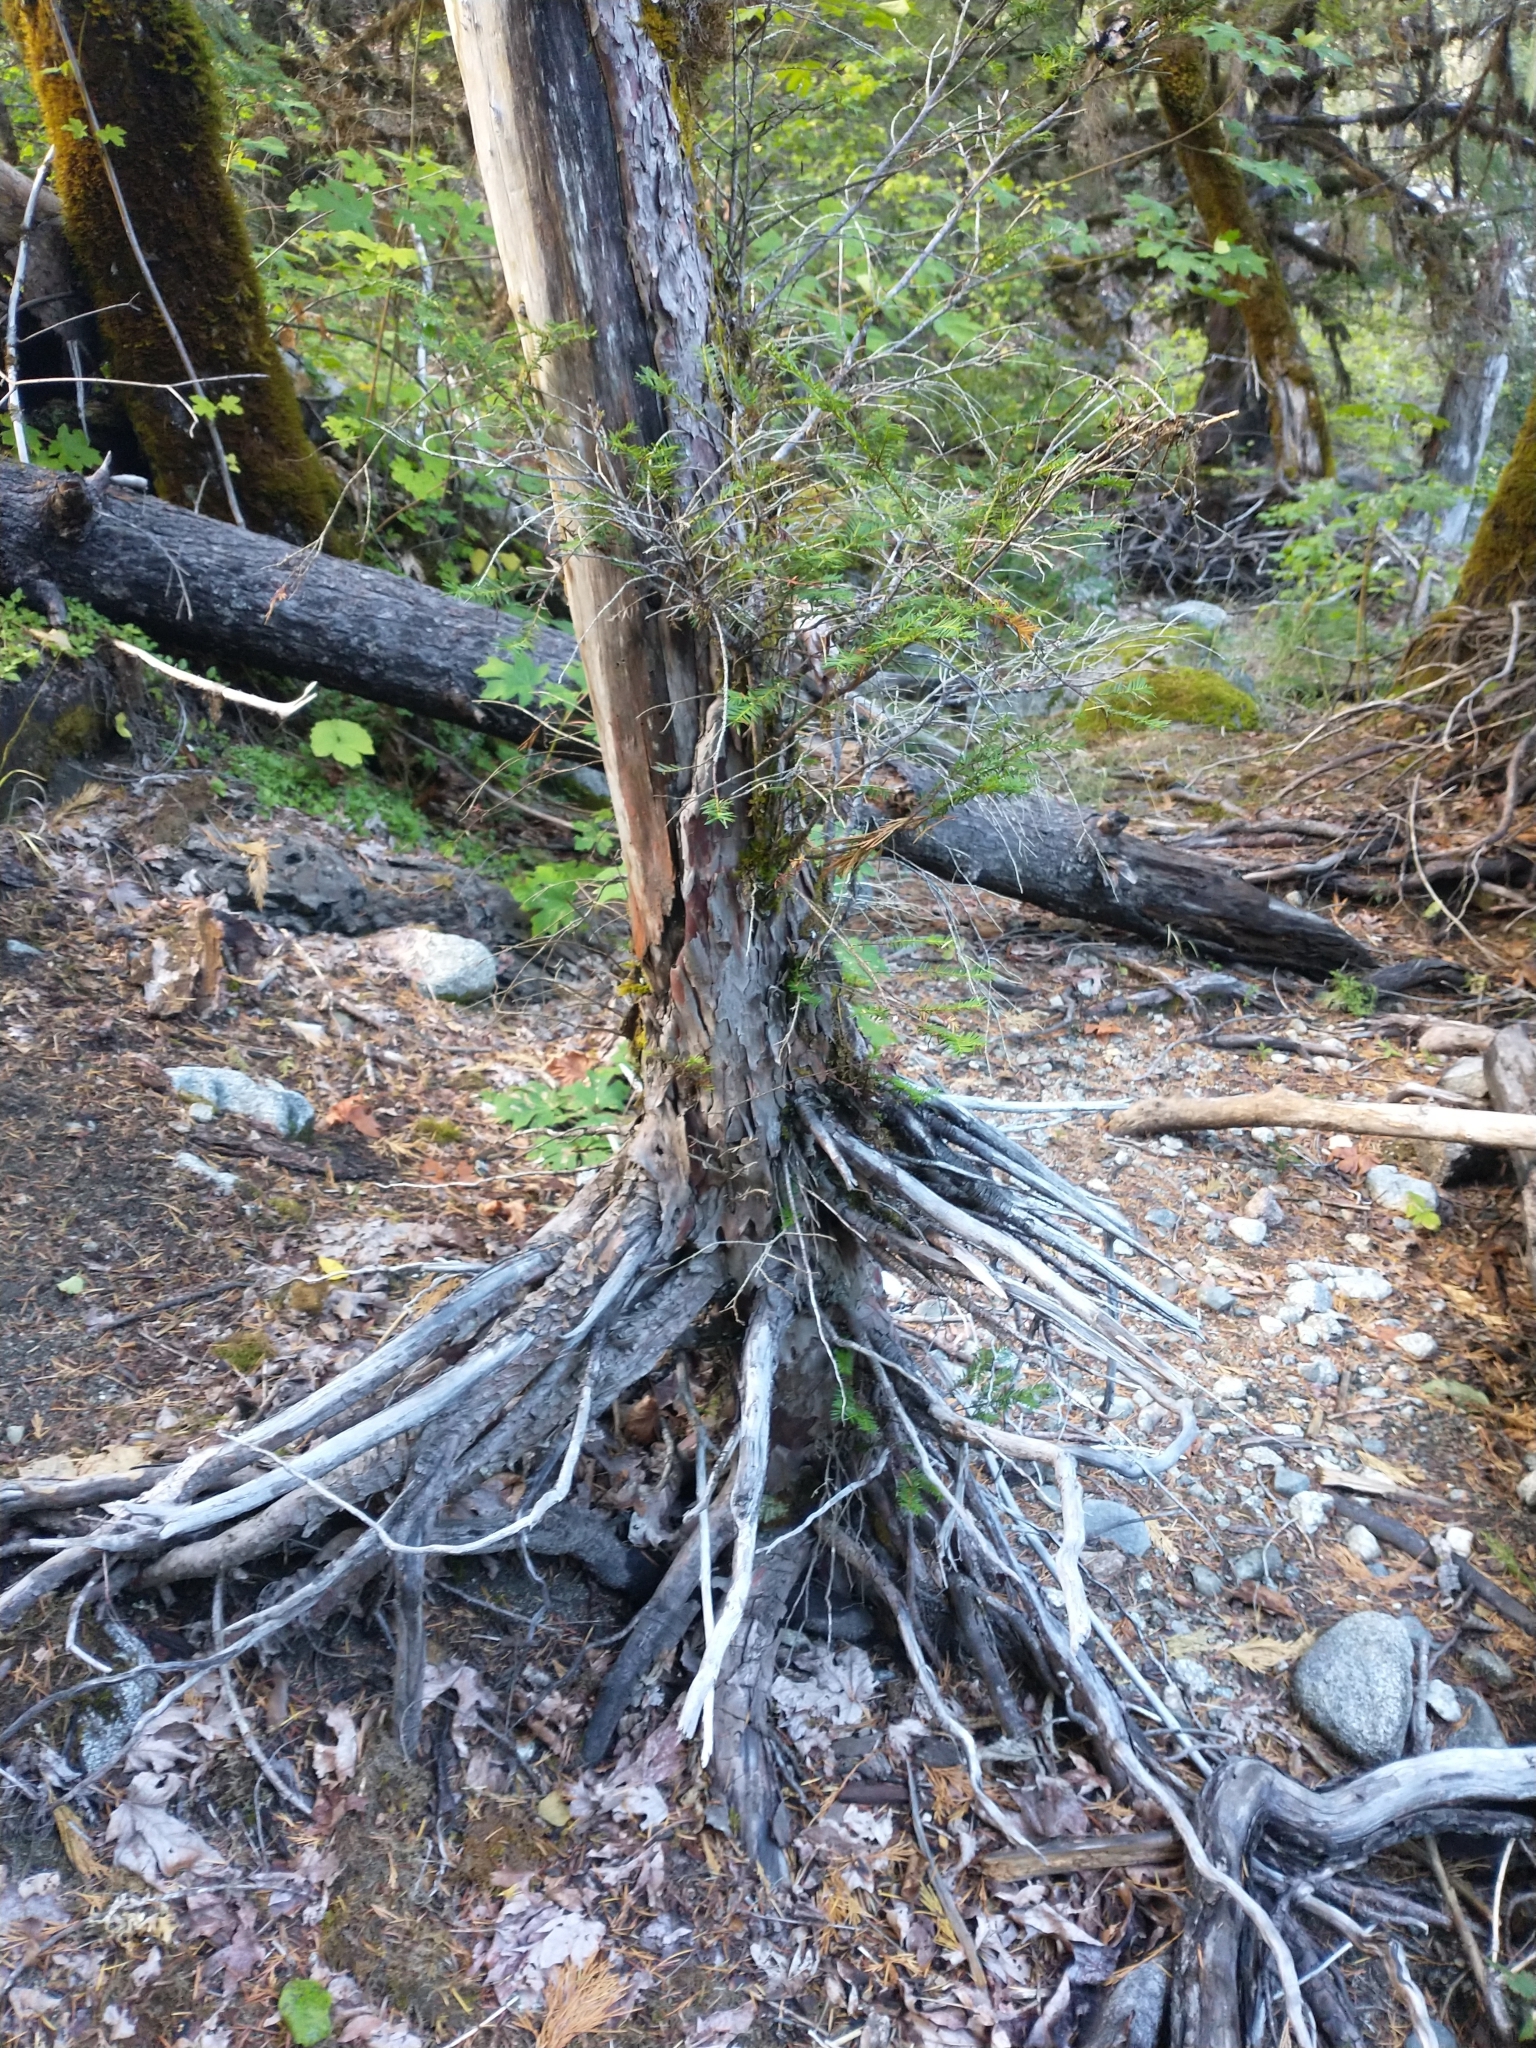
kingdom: Plantae
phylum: Tracheophyta
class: Pinopsida
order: Pinales
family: Taxaceae
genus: Taxus
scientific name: Taxus brevifolia
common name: Pacific yew
